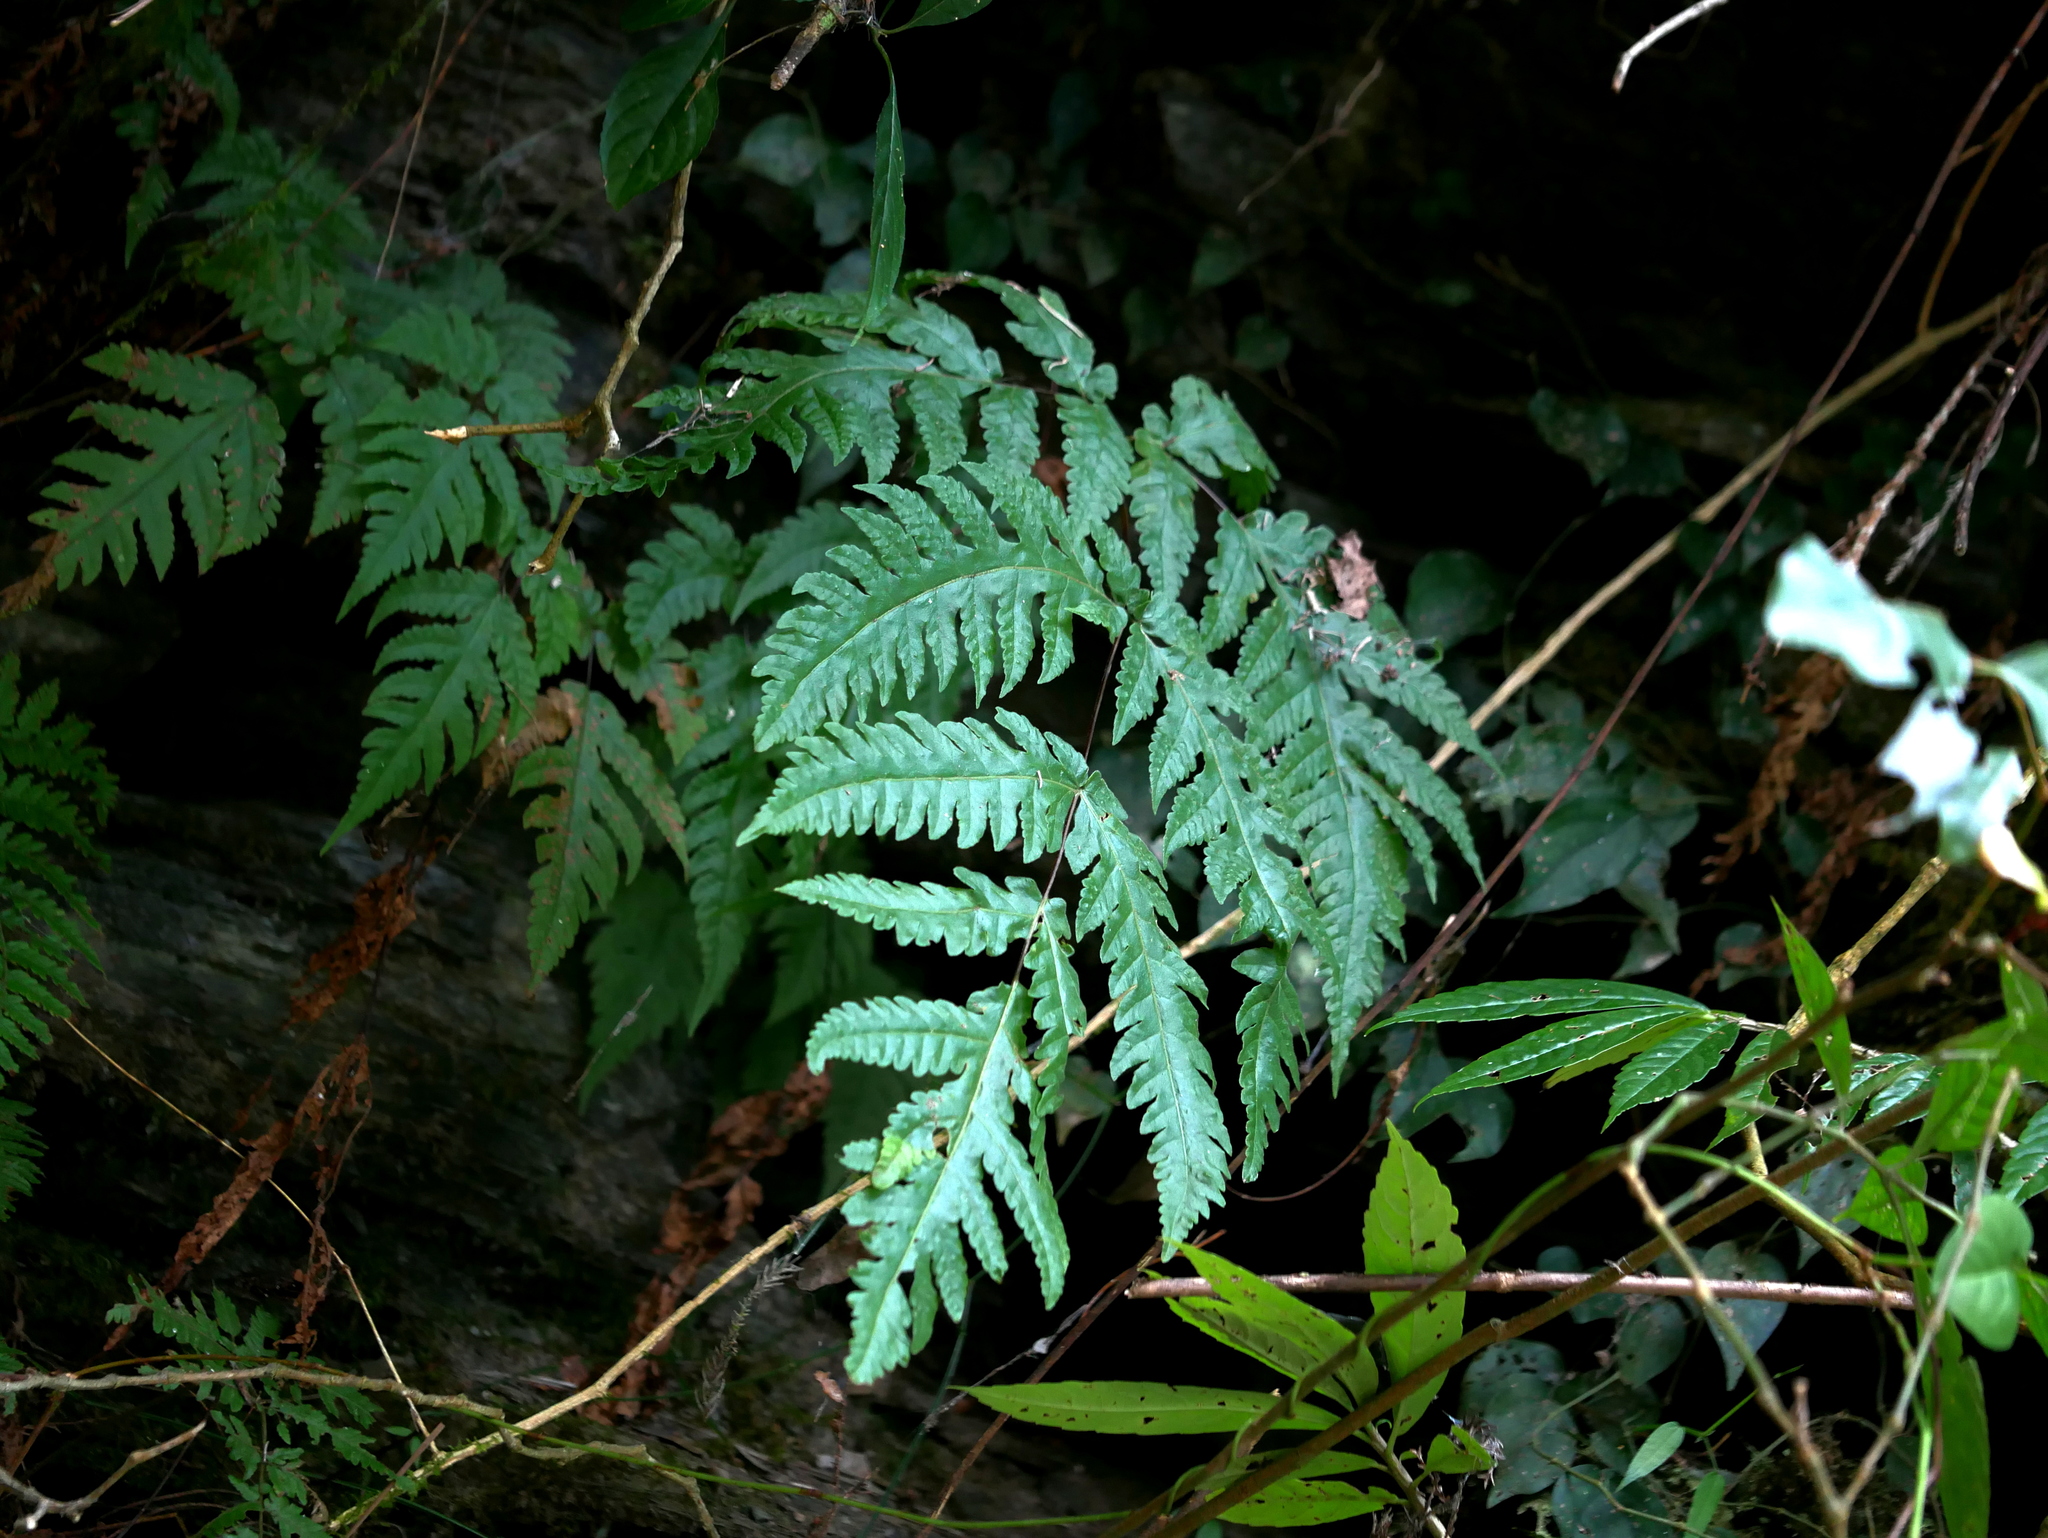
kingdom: Plantae
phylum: Tracheophyta
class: Polypodiopsida
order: Polypodiales
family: Tectariaceae
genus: Tectaria
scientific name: Tectaria coadunata
